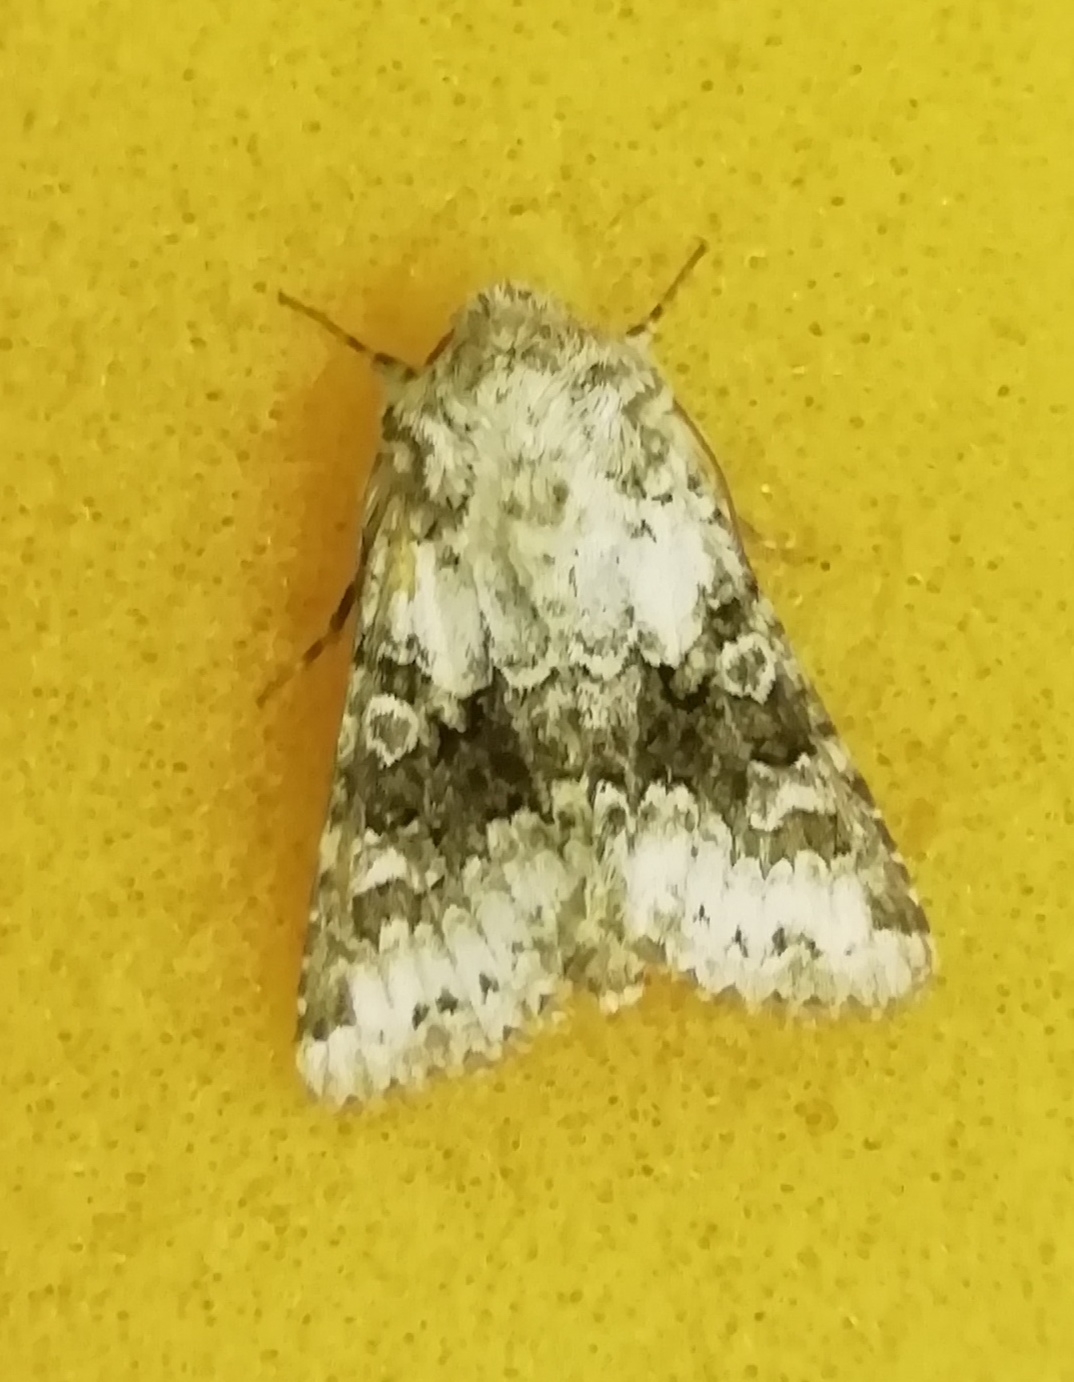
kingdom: Animalia
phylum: Arthropoda
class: Insecta
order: Lepidoptera
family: Noctuidae
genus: Hecatera
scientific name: Hecatera bicolorata
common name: Broad-barred white
